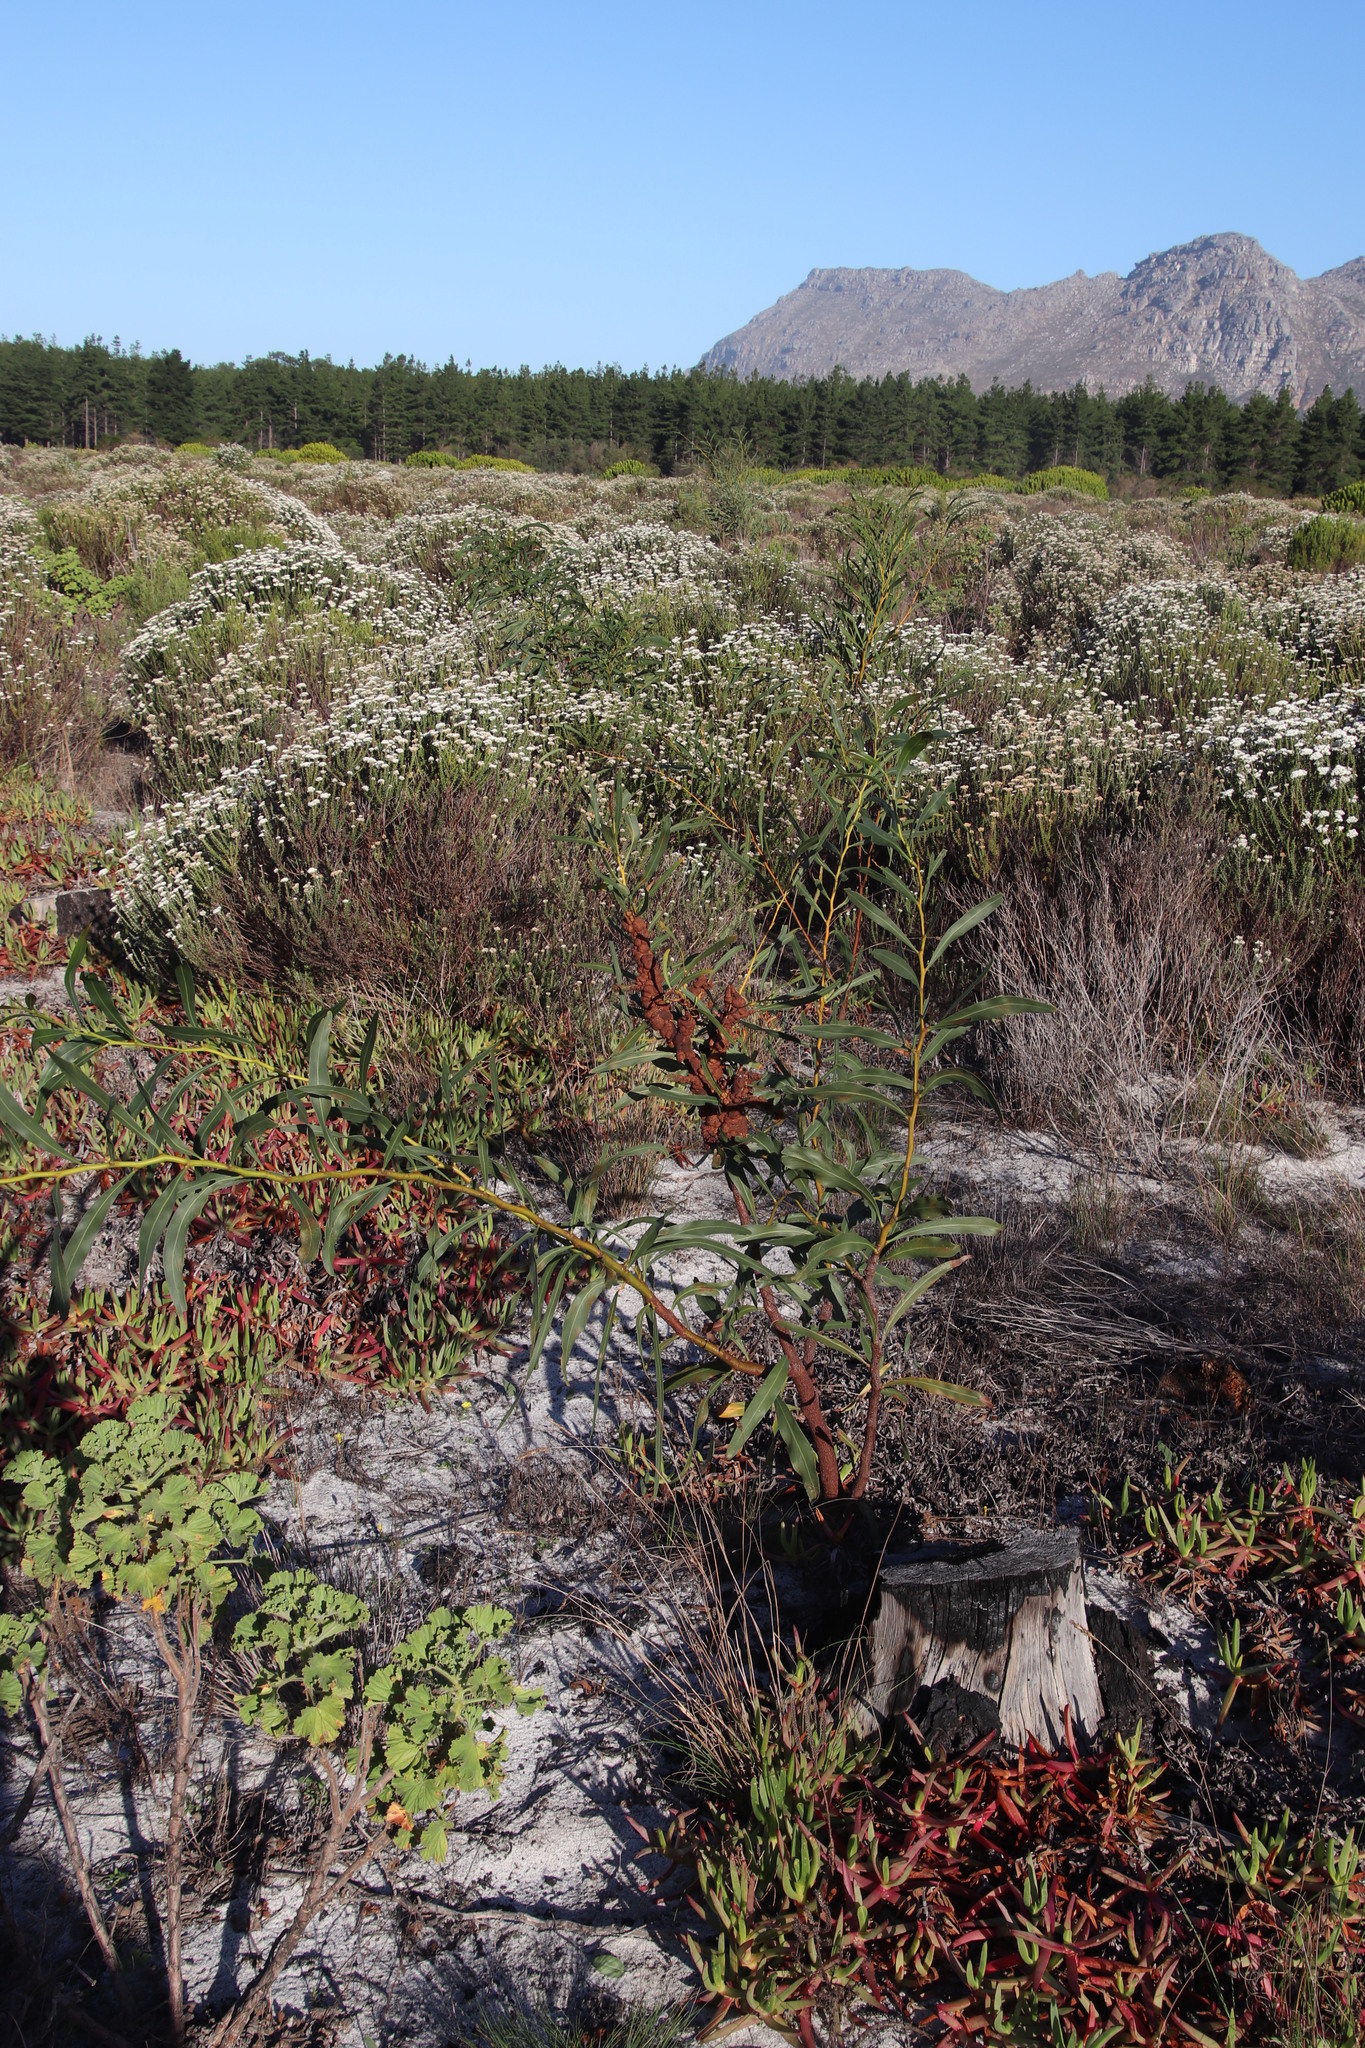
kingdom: Plantae
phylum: Tracheophyta
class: Magnoliopsida
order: Fabales
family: Fabaceae
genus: Acacia
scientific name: Acacia saligna
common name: Orange wattle
